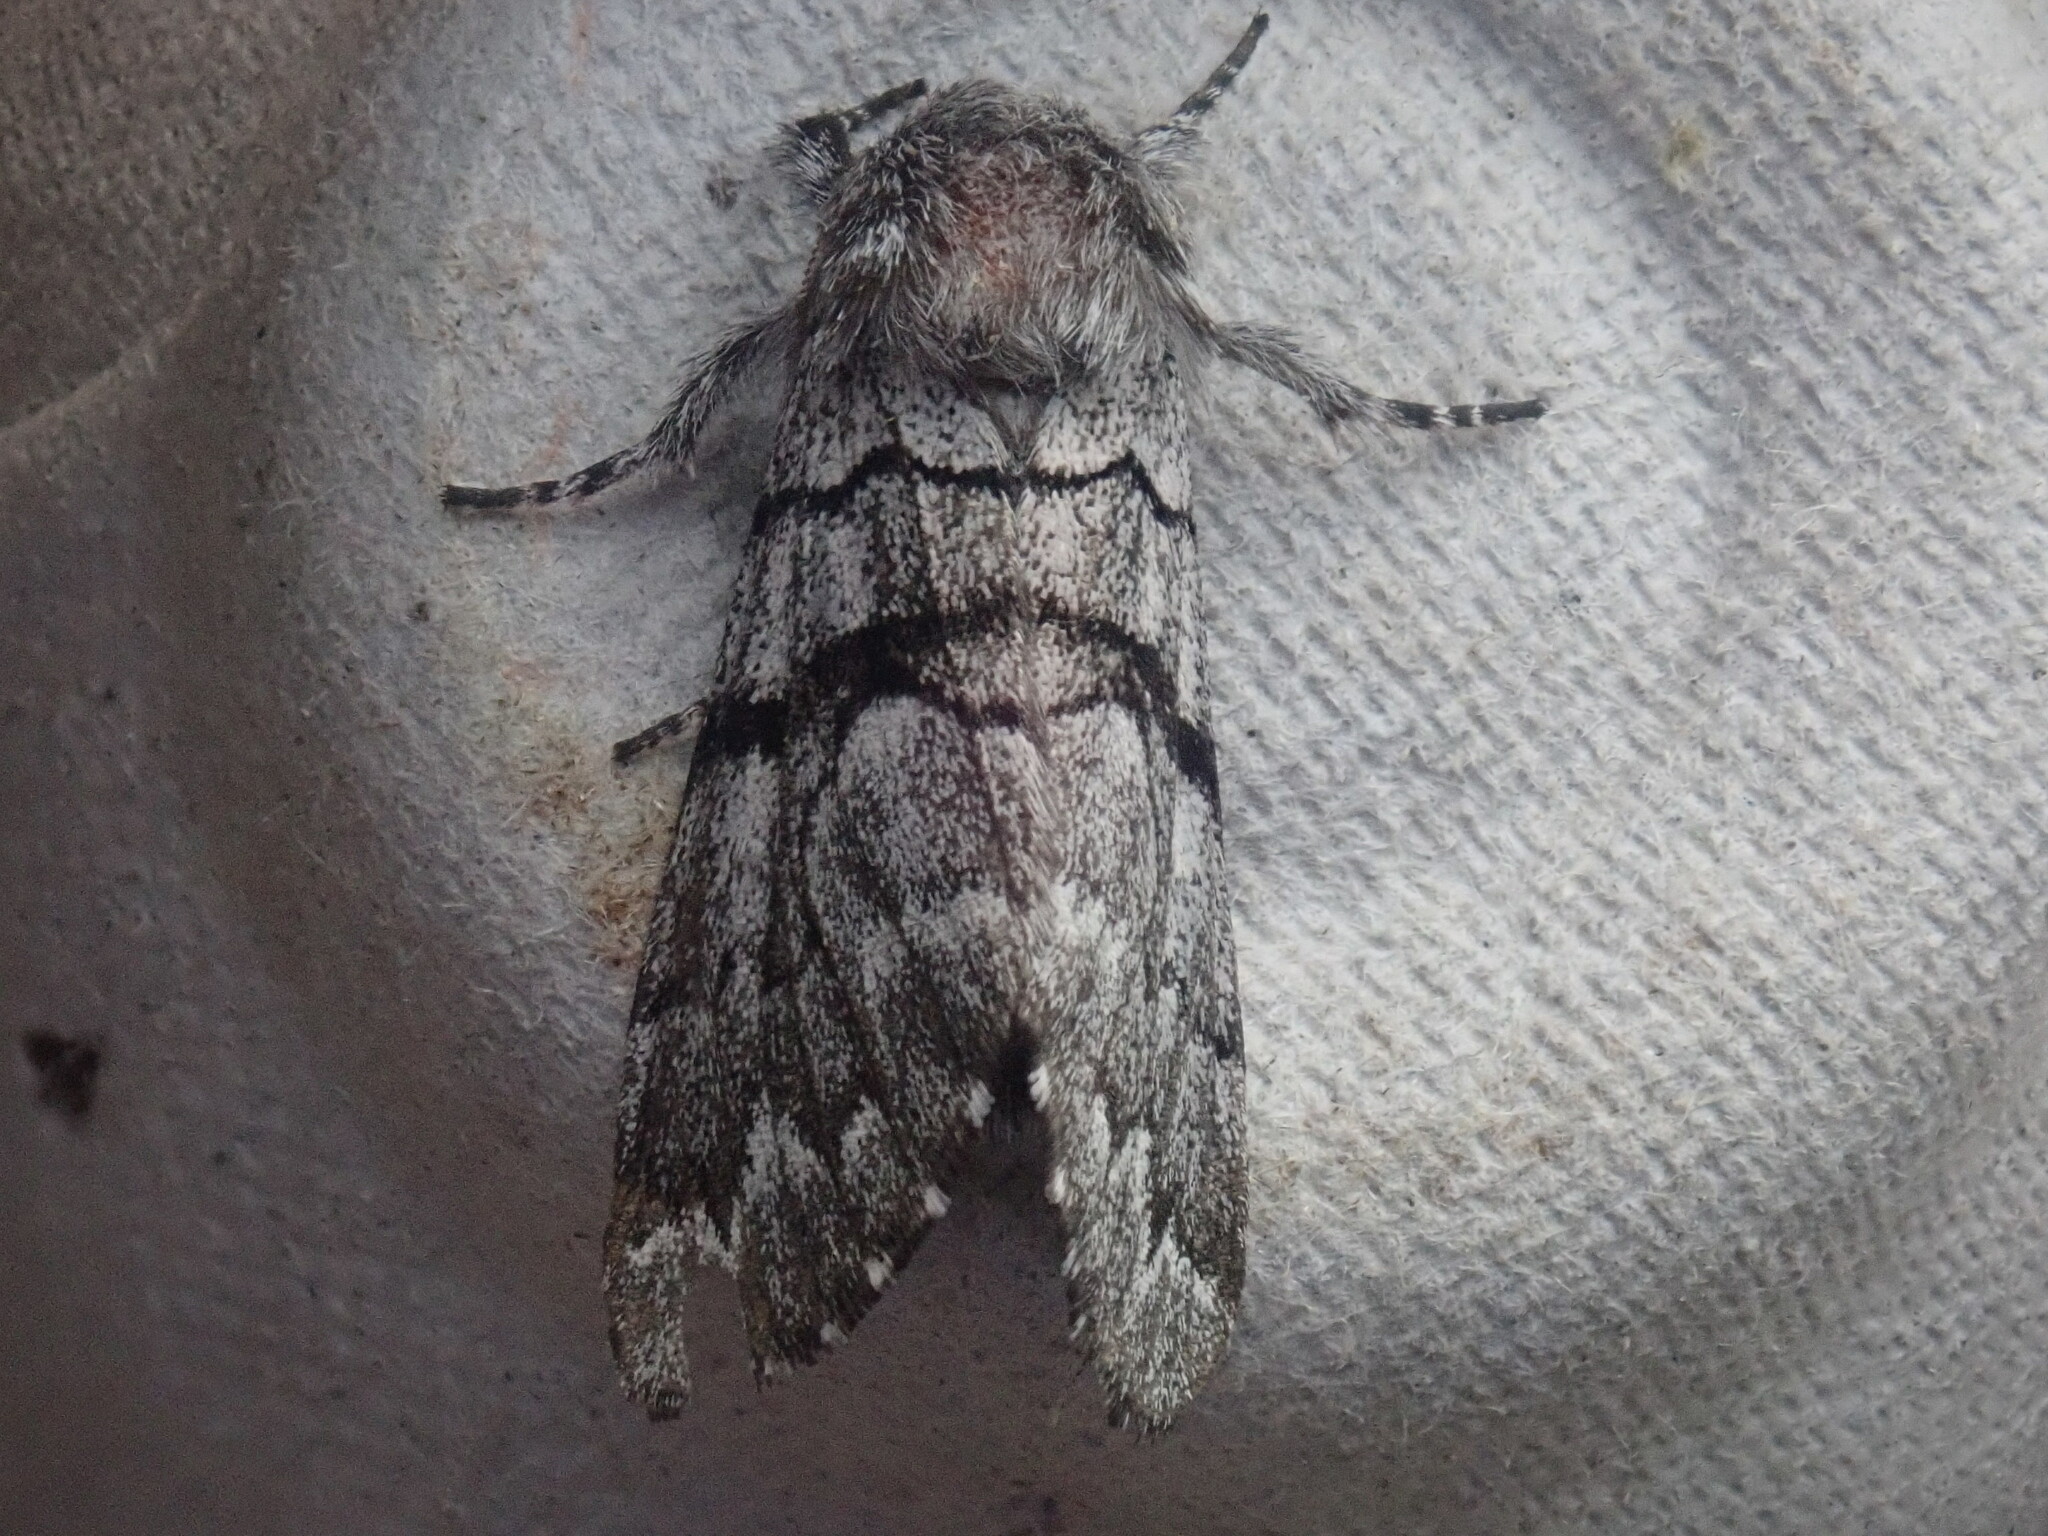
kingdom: Animalia
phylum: Arthropoda
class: Insecta
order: Lepidoptera
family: Noctuidae
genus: Panthea
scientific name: Panthea furcilla
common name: Eastern panthea moth
